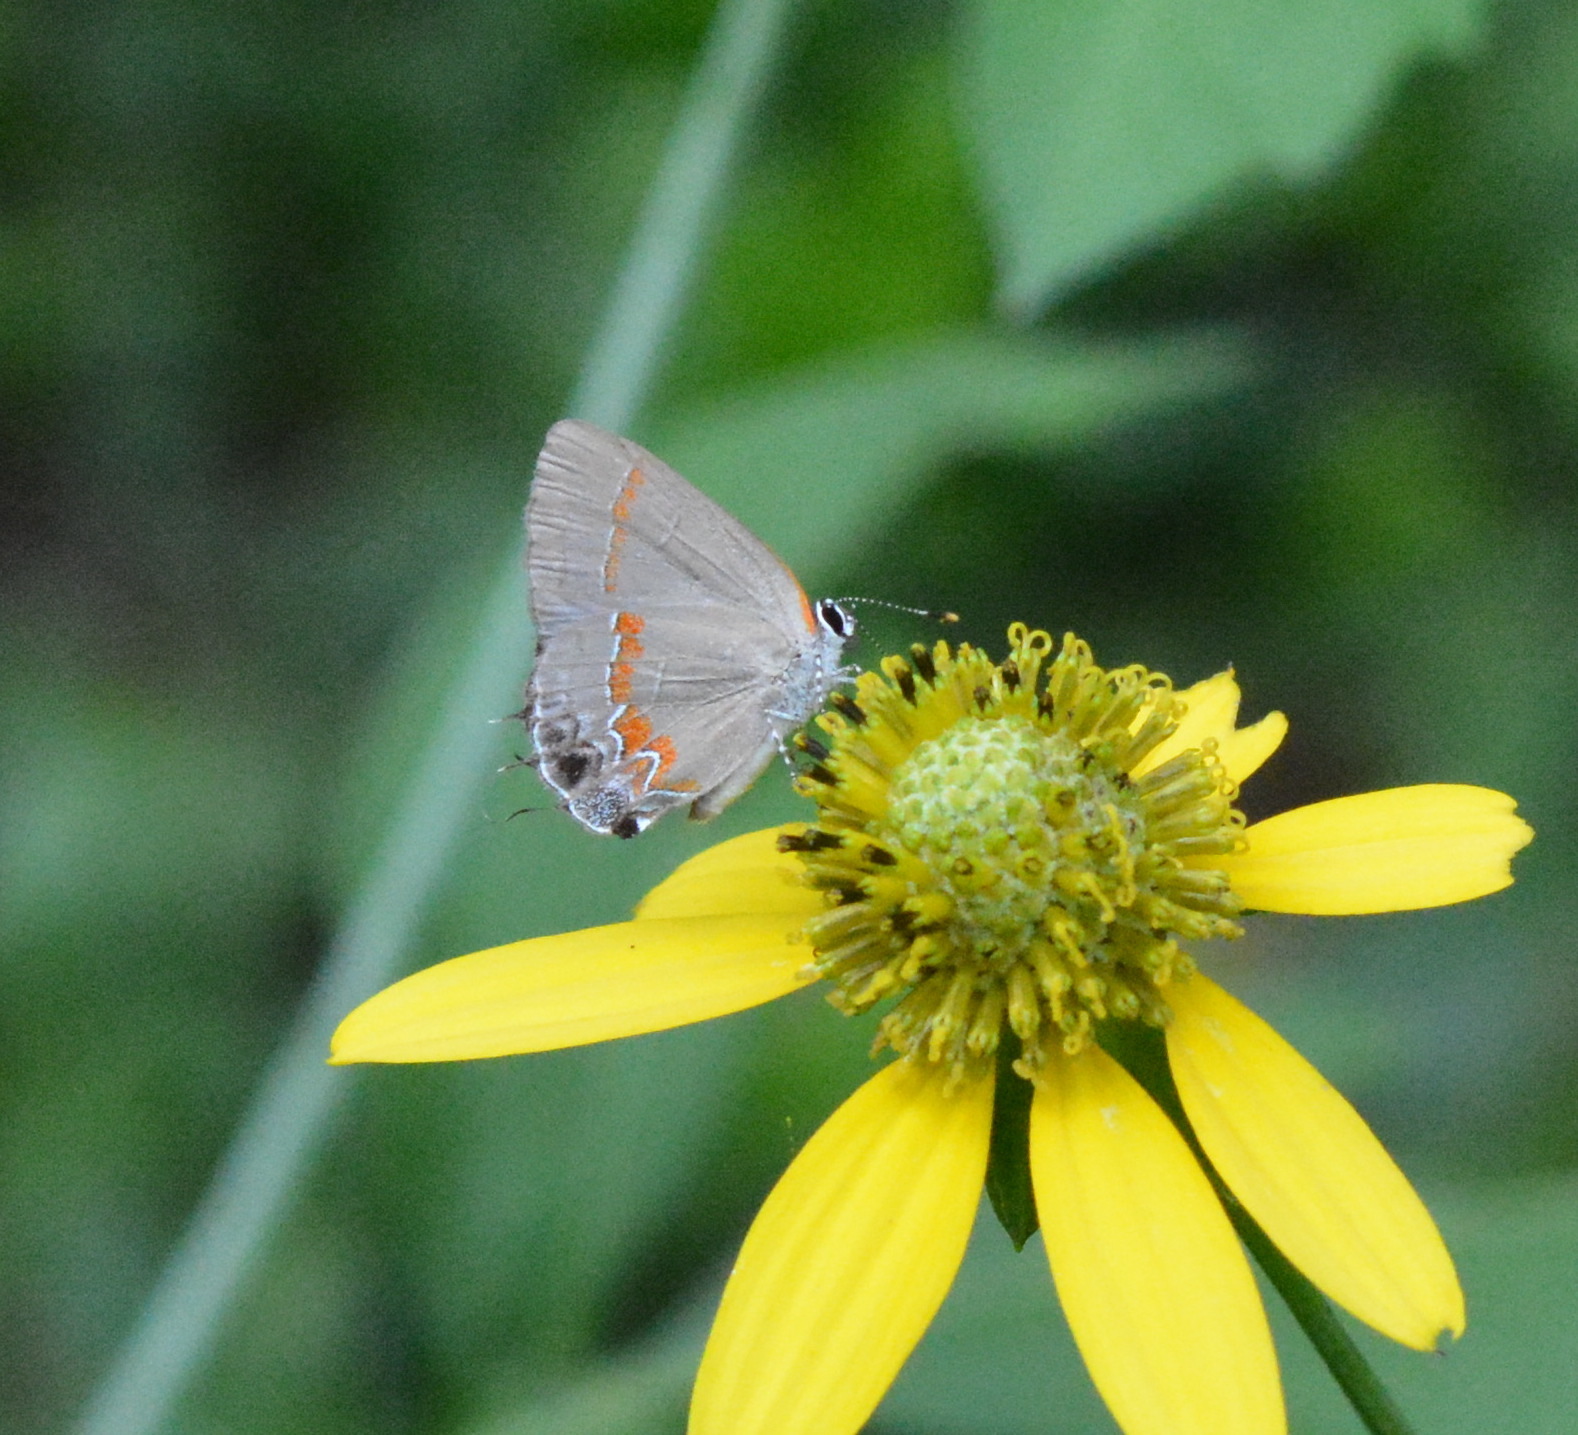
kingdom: Animalia
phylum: Arthropoda
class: Insecta
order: Lepidoptera
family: Lycaenidae
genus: Calycopis
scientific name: Calycopis cecrops
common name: Red-banded hairstreak
